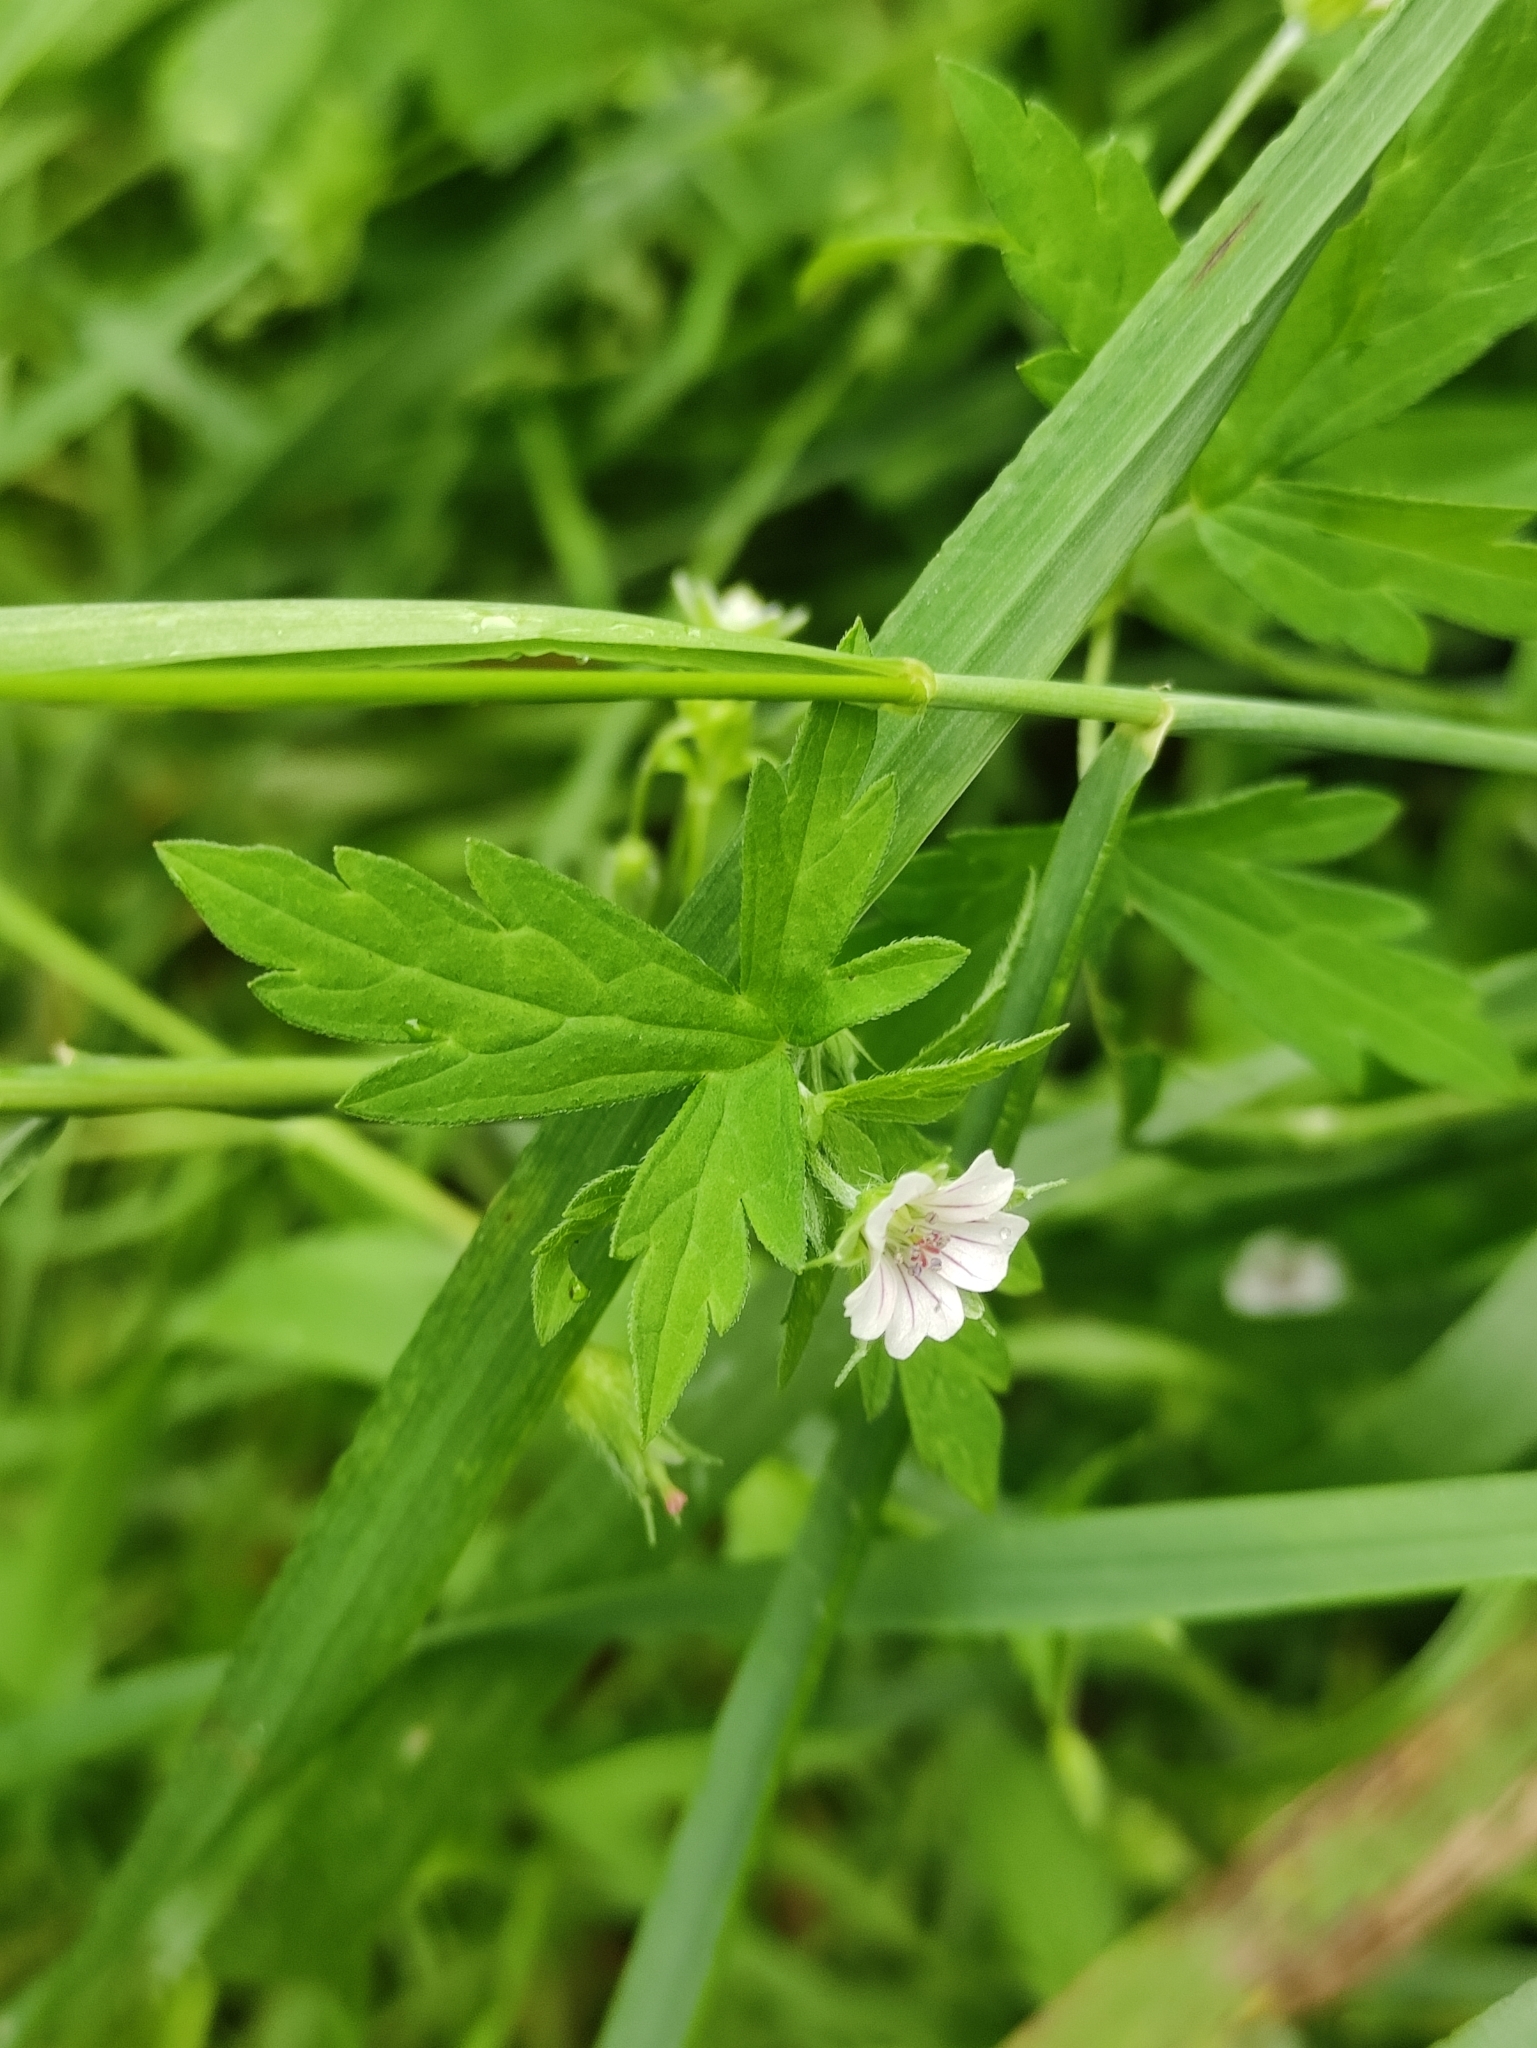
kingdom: Plantae
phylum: Tracheophyta
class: Magnoliopsida
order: Geraniales
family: Geraniaceae
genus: Geranium
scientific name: Geranium sibiricum
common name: Siberian crane's-bill
